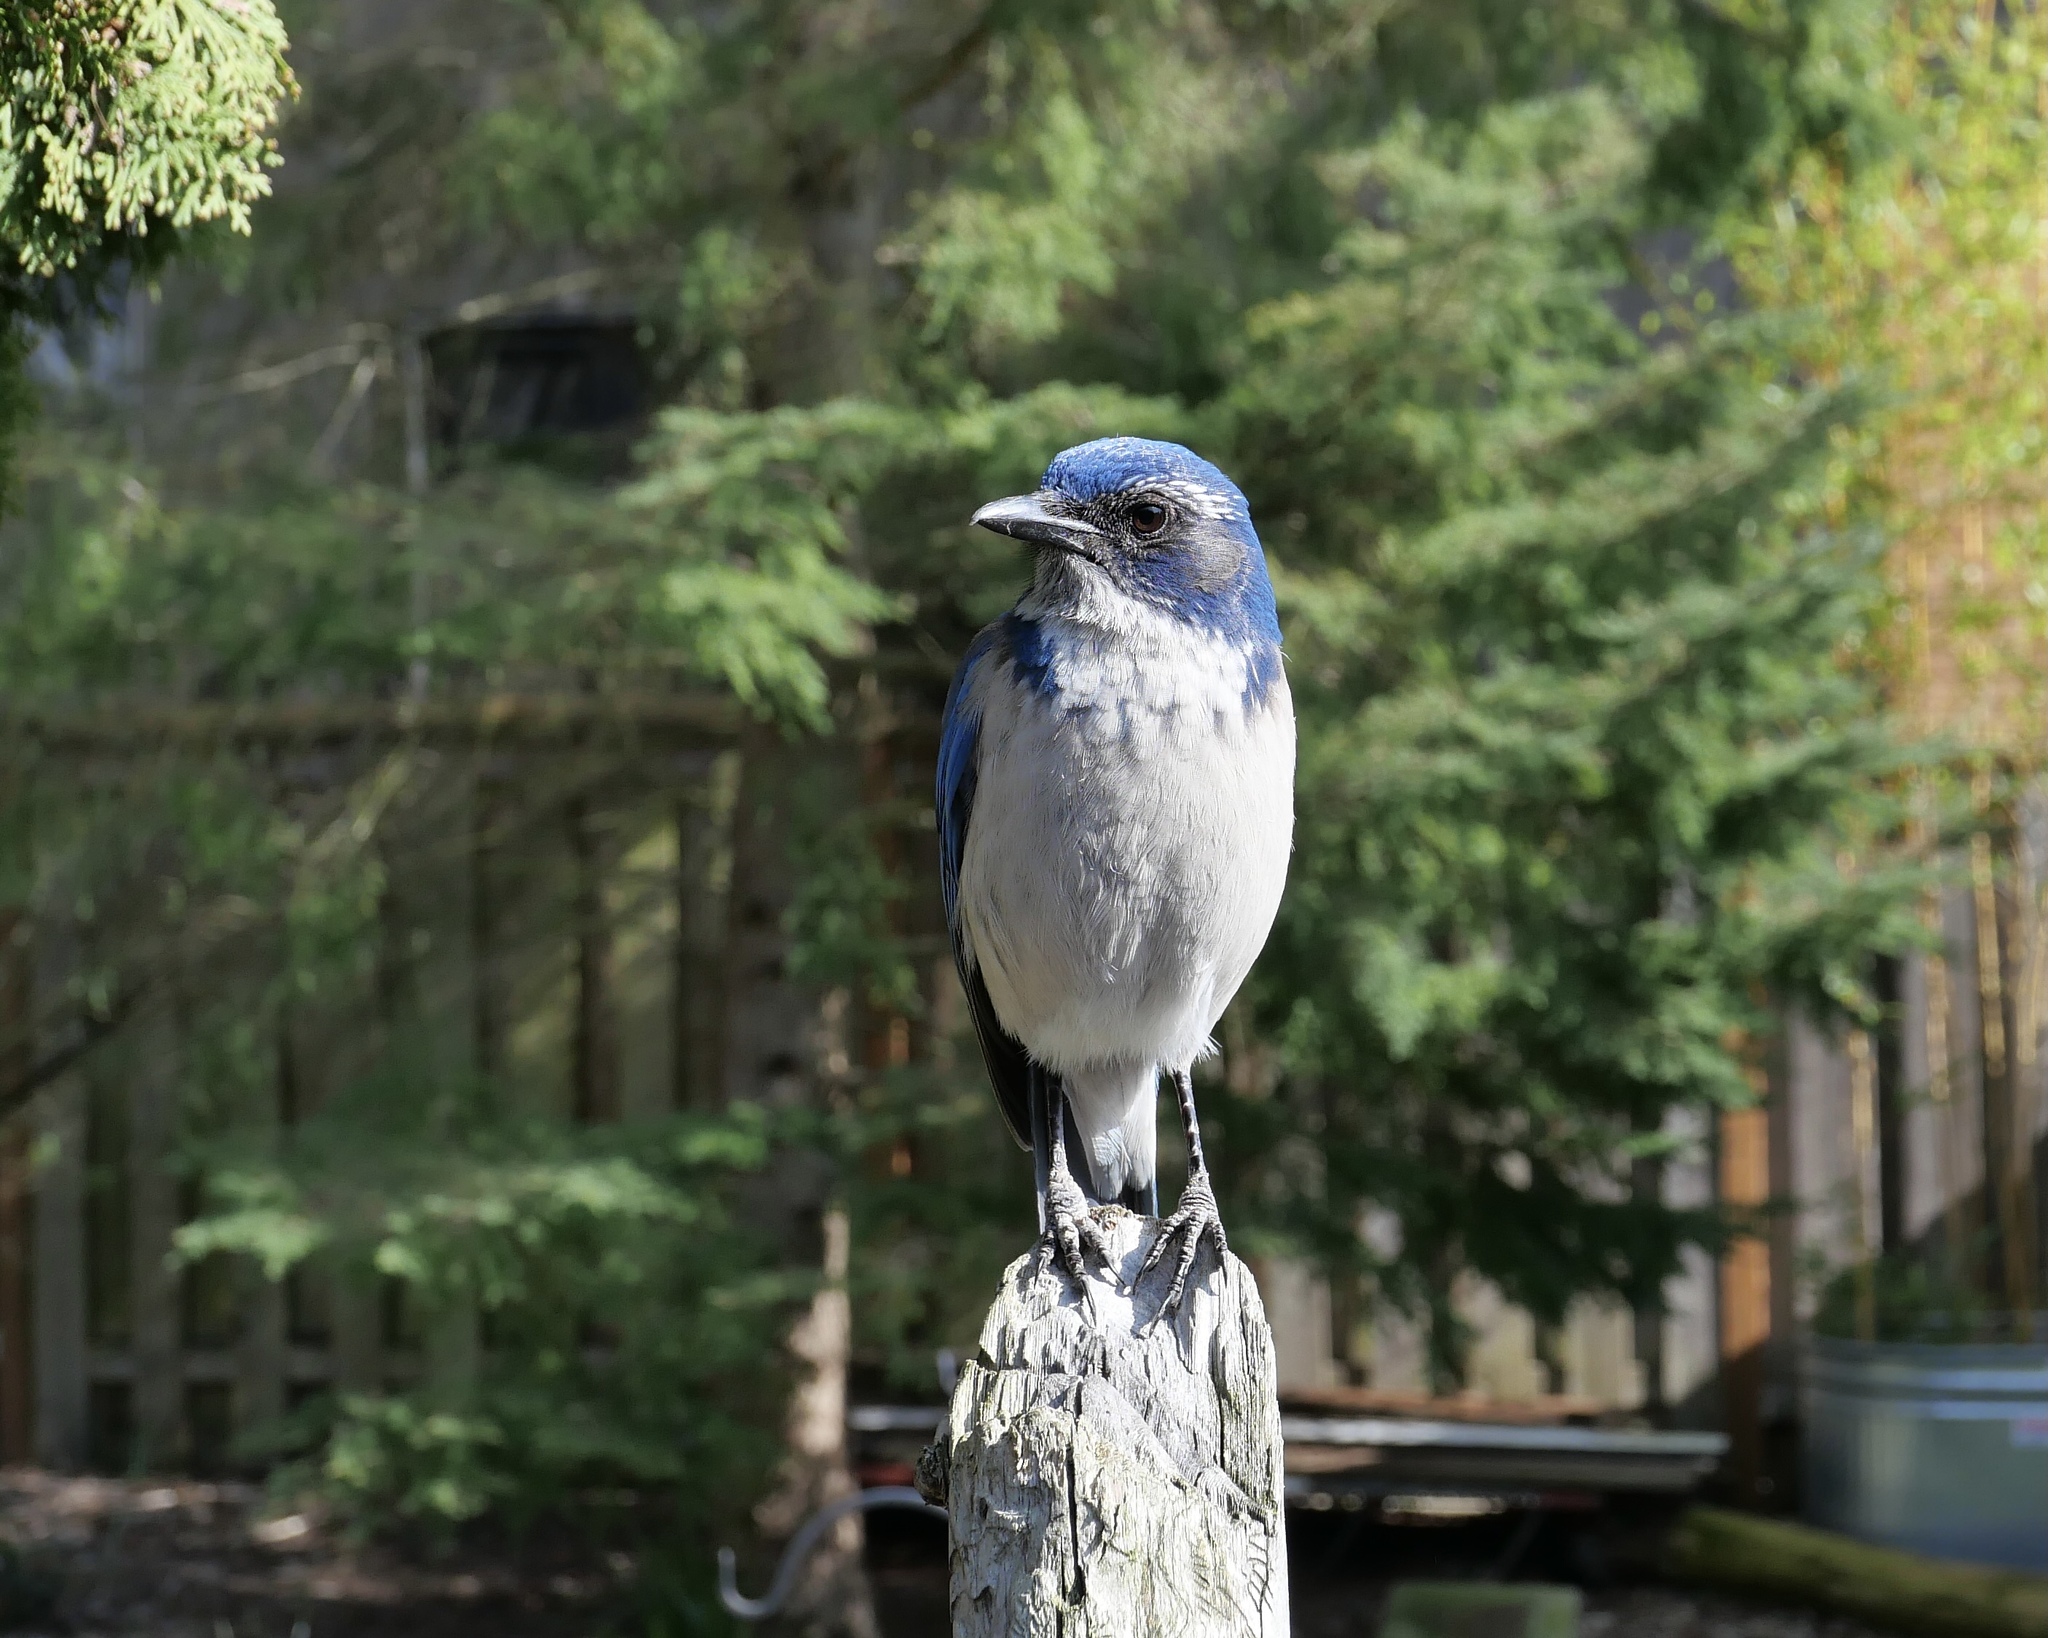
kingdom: Animalia
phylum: Chordata
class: Aves
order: Passeriformes
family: Corvidae
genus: Aphelocoma
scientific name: Aphelocoma californica
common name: California scrub-jay
